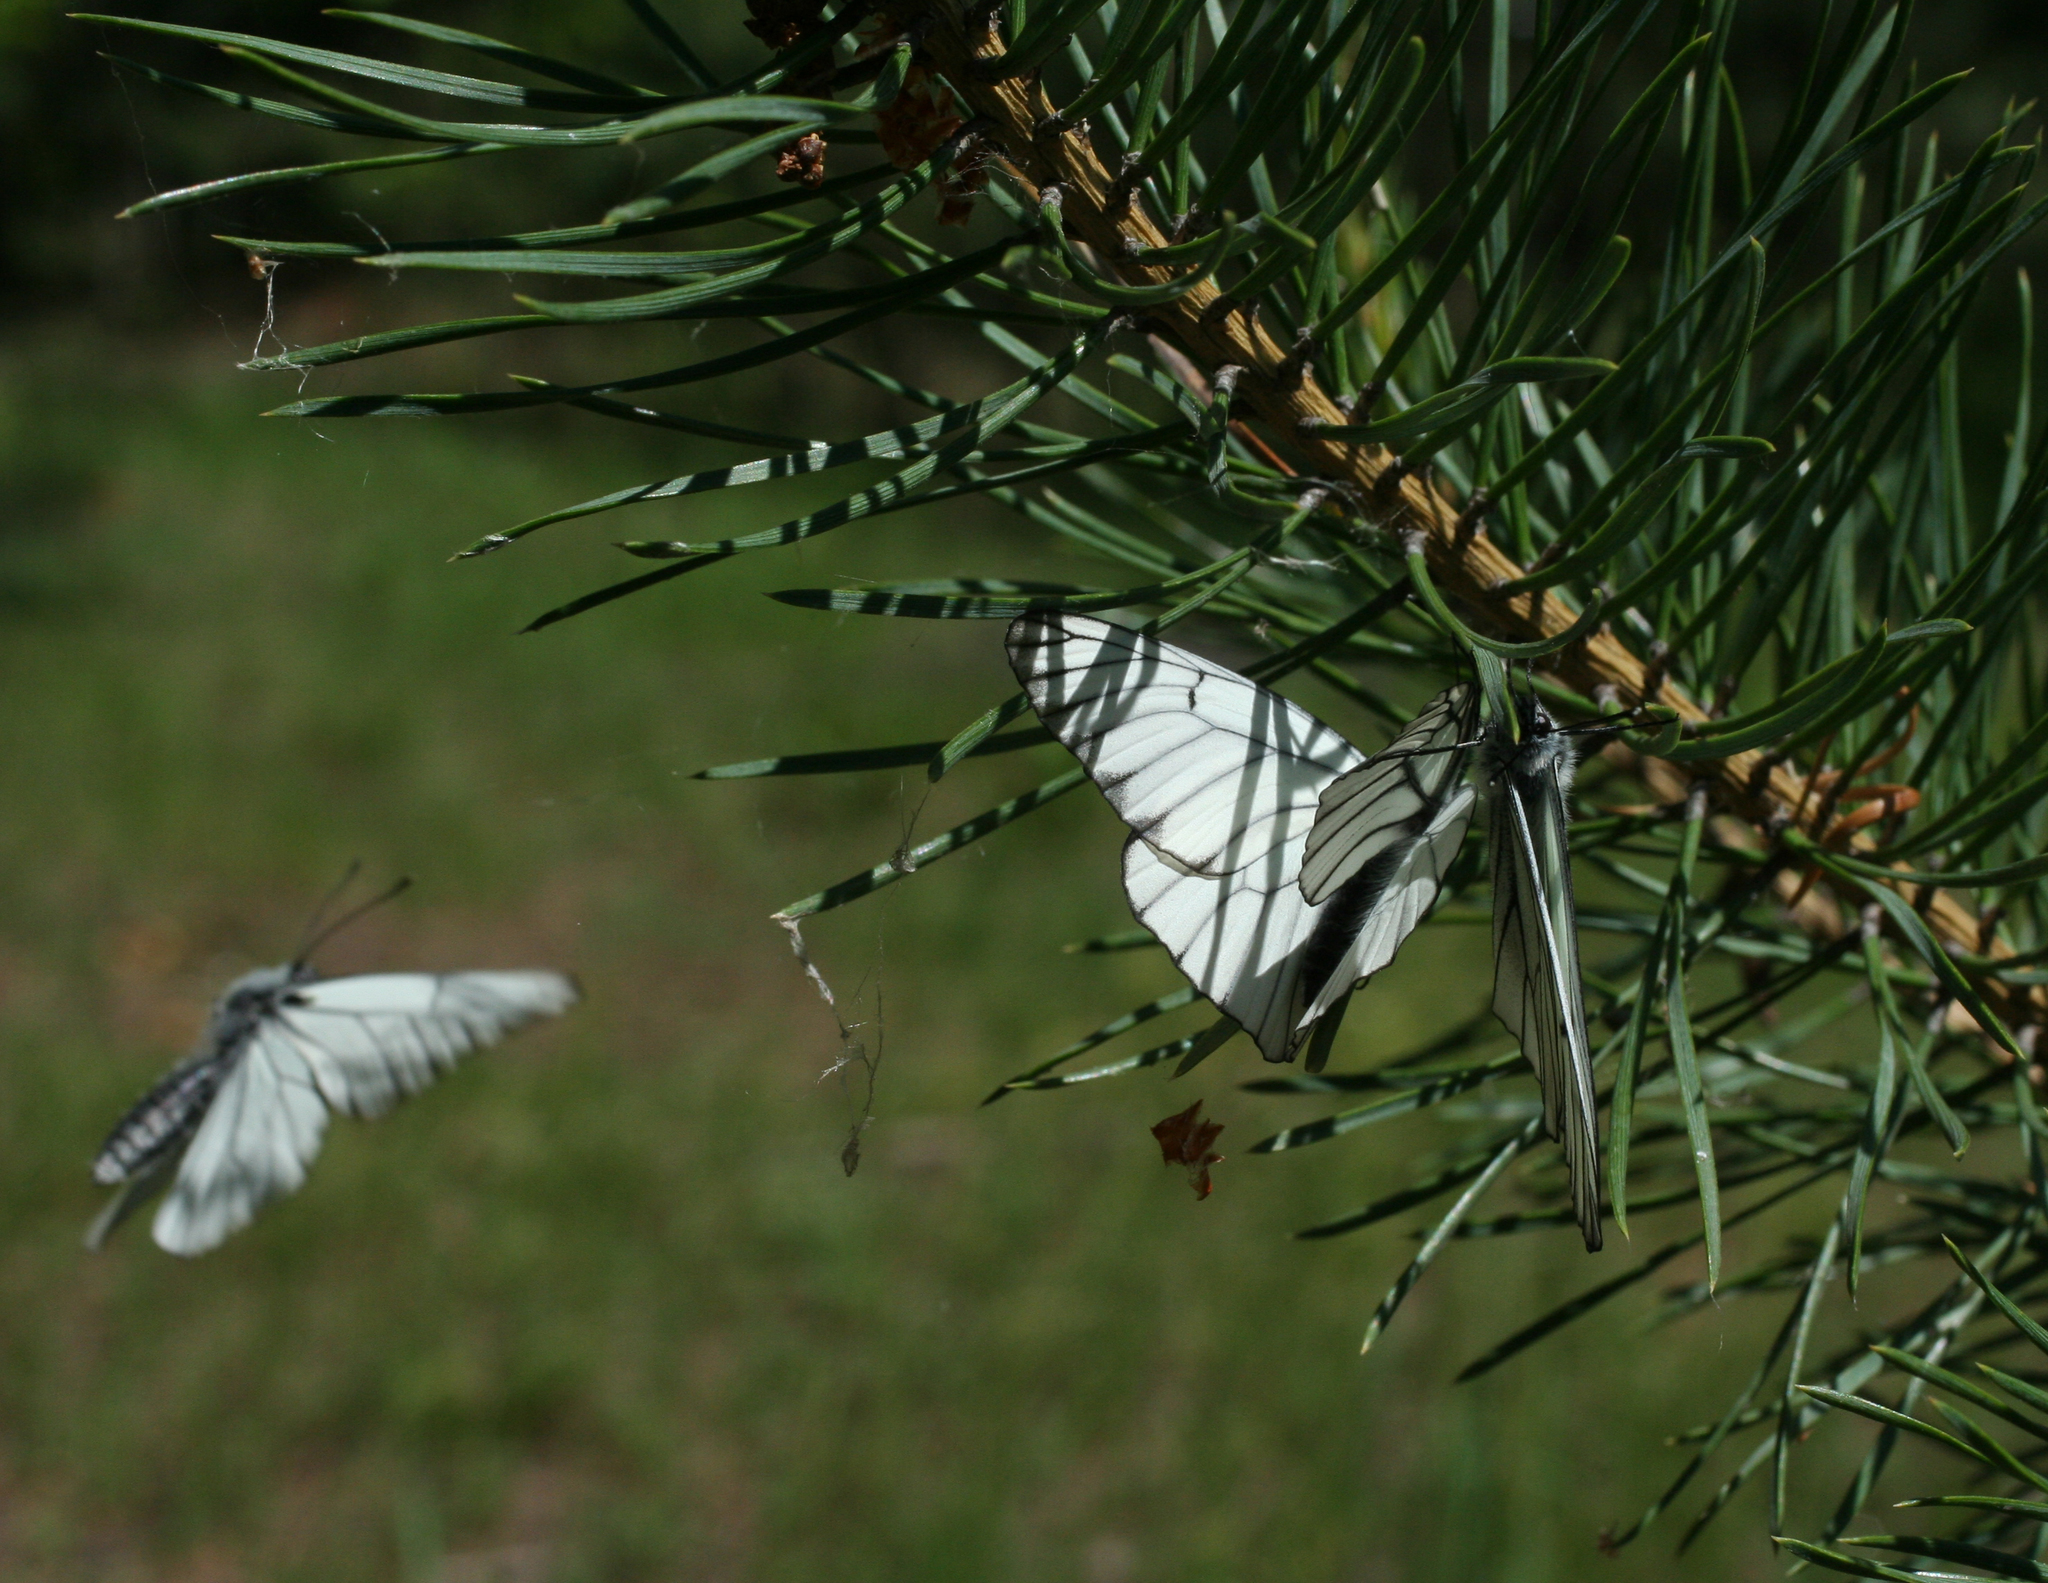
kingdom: Animalia
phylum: Arthropoda
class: Insecta
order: Lepidoptera
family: Pieridae
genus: Aporia
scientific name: Aporia crataegi
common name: Black-veined white
